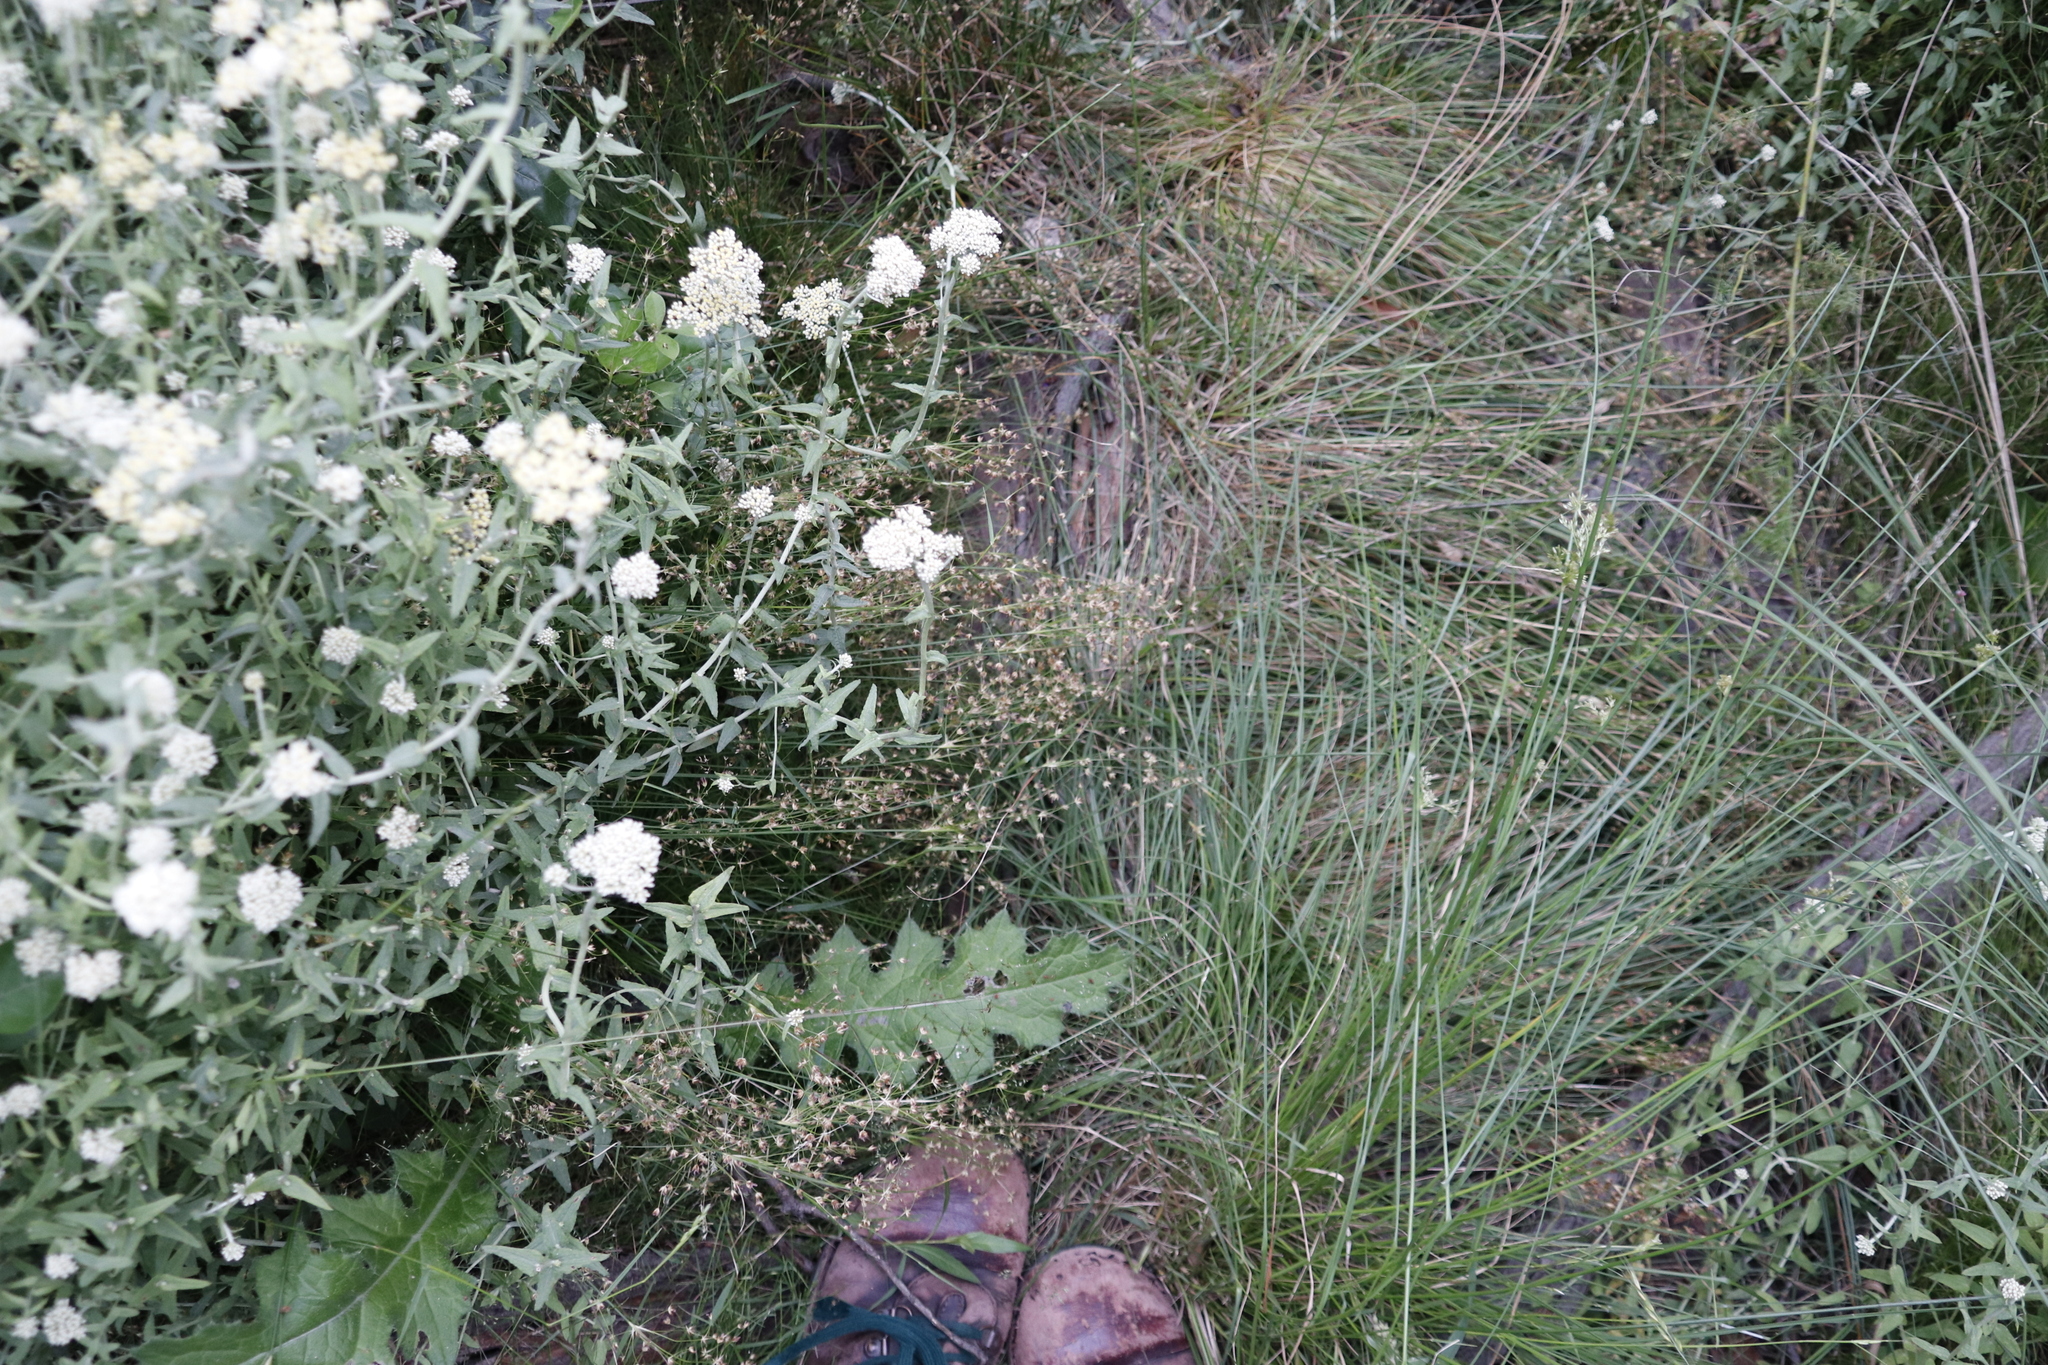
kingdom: Plantae
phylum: Tracheophyta
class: Liliopsida
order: Poales
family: Juncaceae
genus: Juncus
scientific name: Juncus capensis
